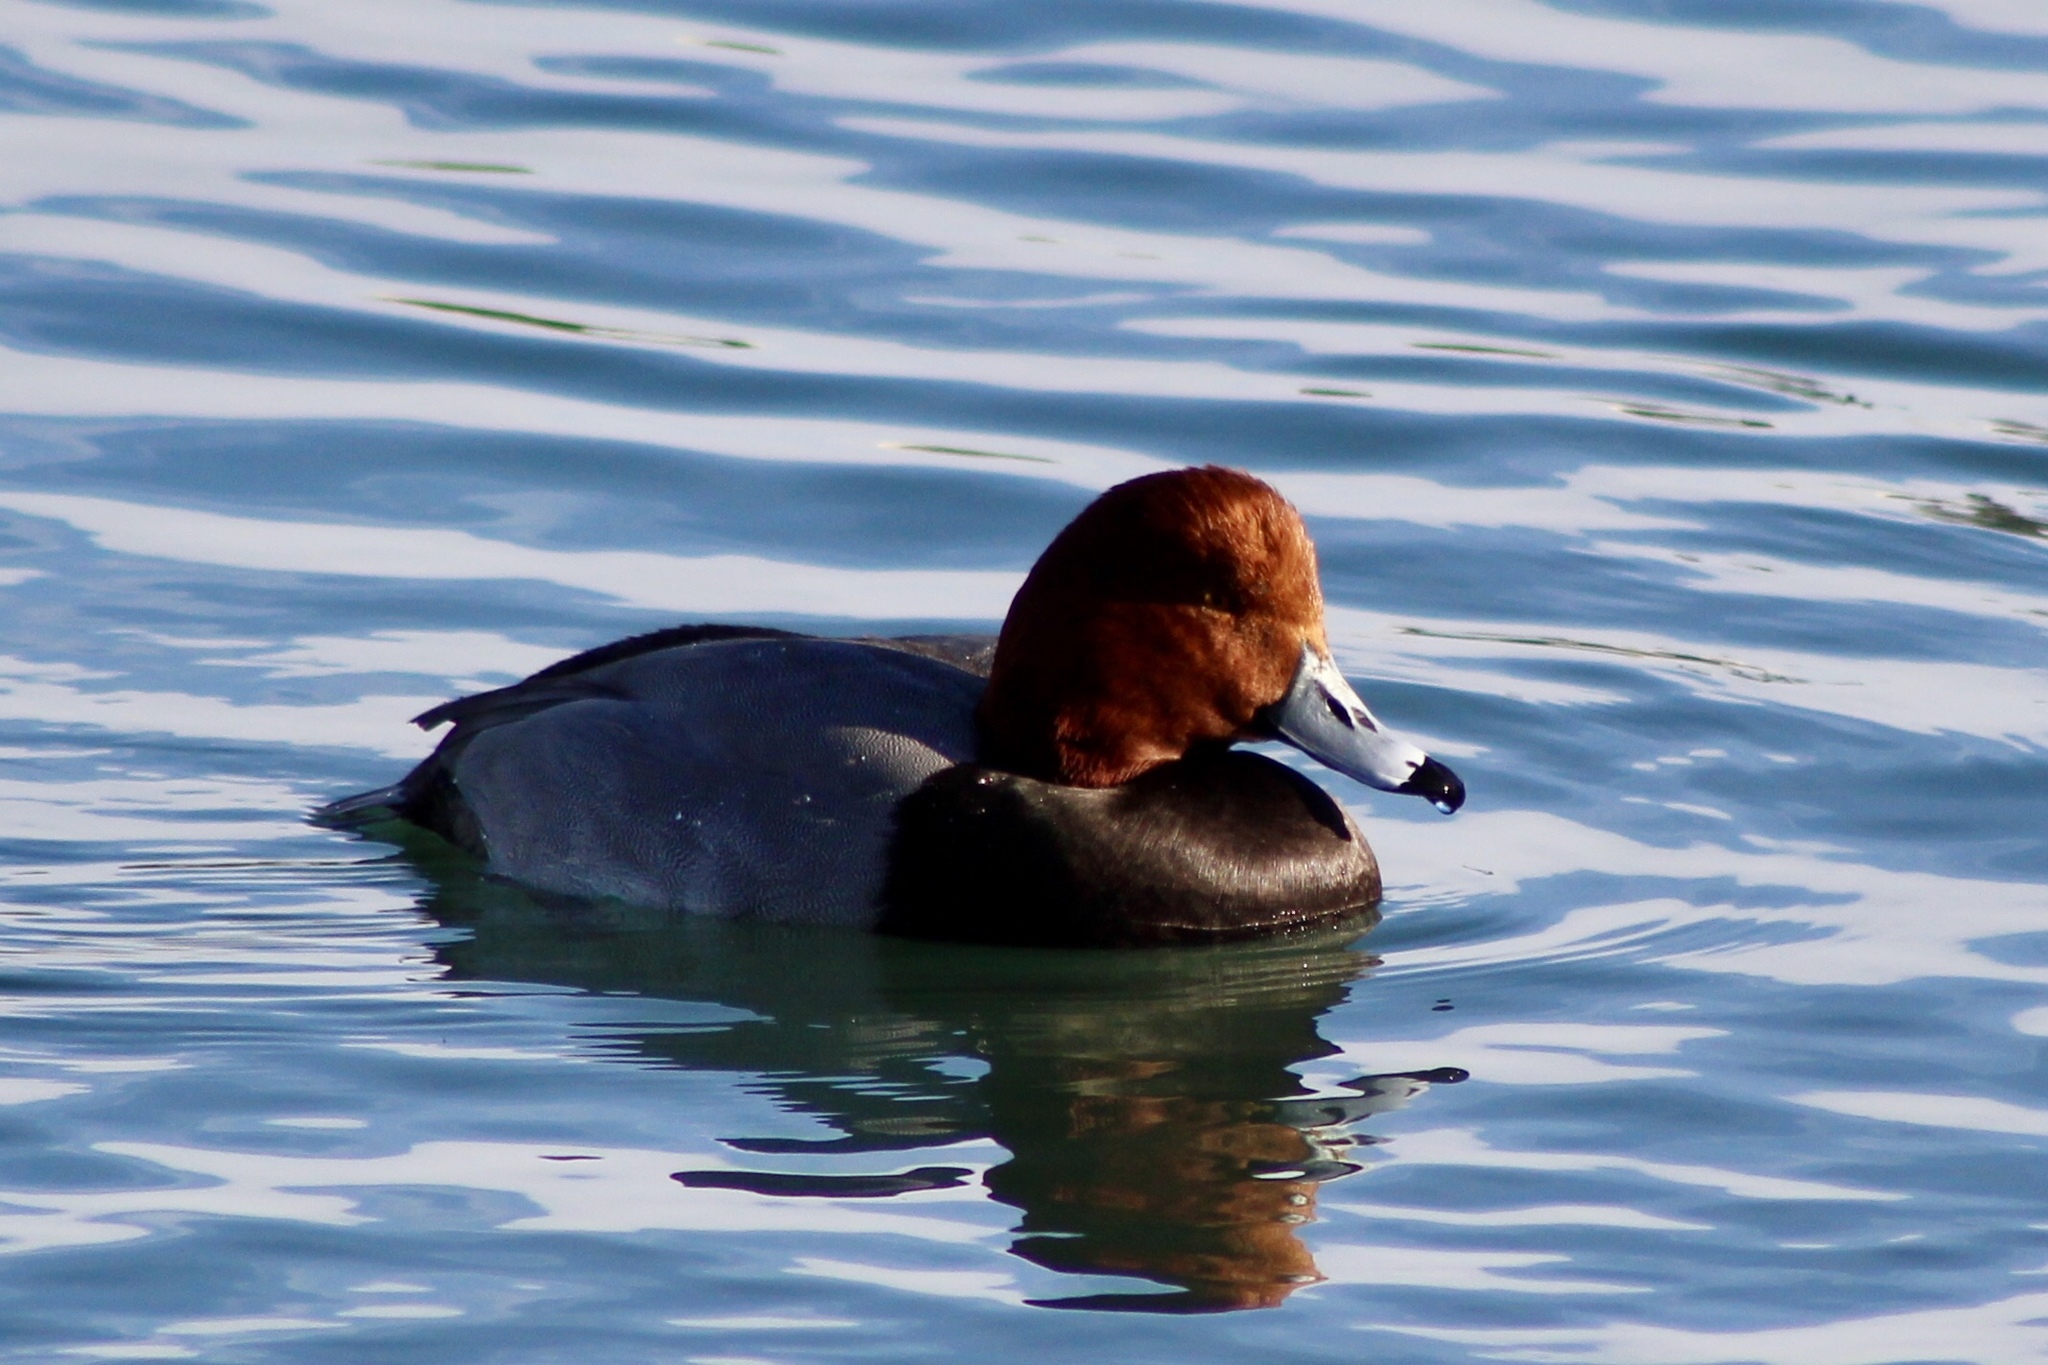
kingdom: Animalia
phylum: Chordata
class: Aves
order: Anseriformes
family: Anatidae
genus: Aythya
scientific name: Aythya americana
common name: Redhead
